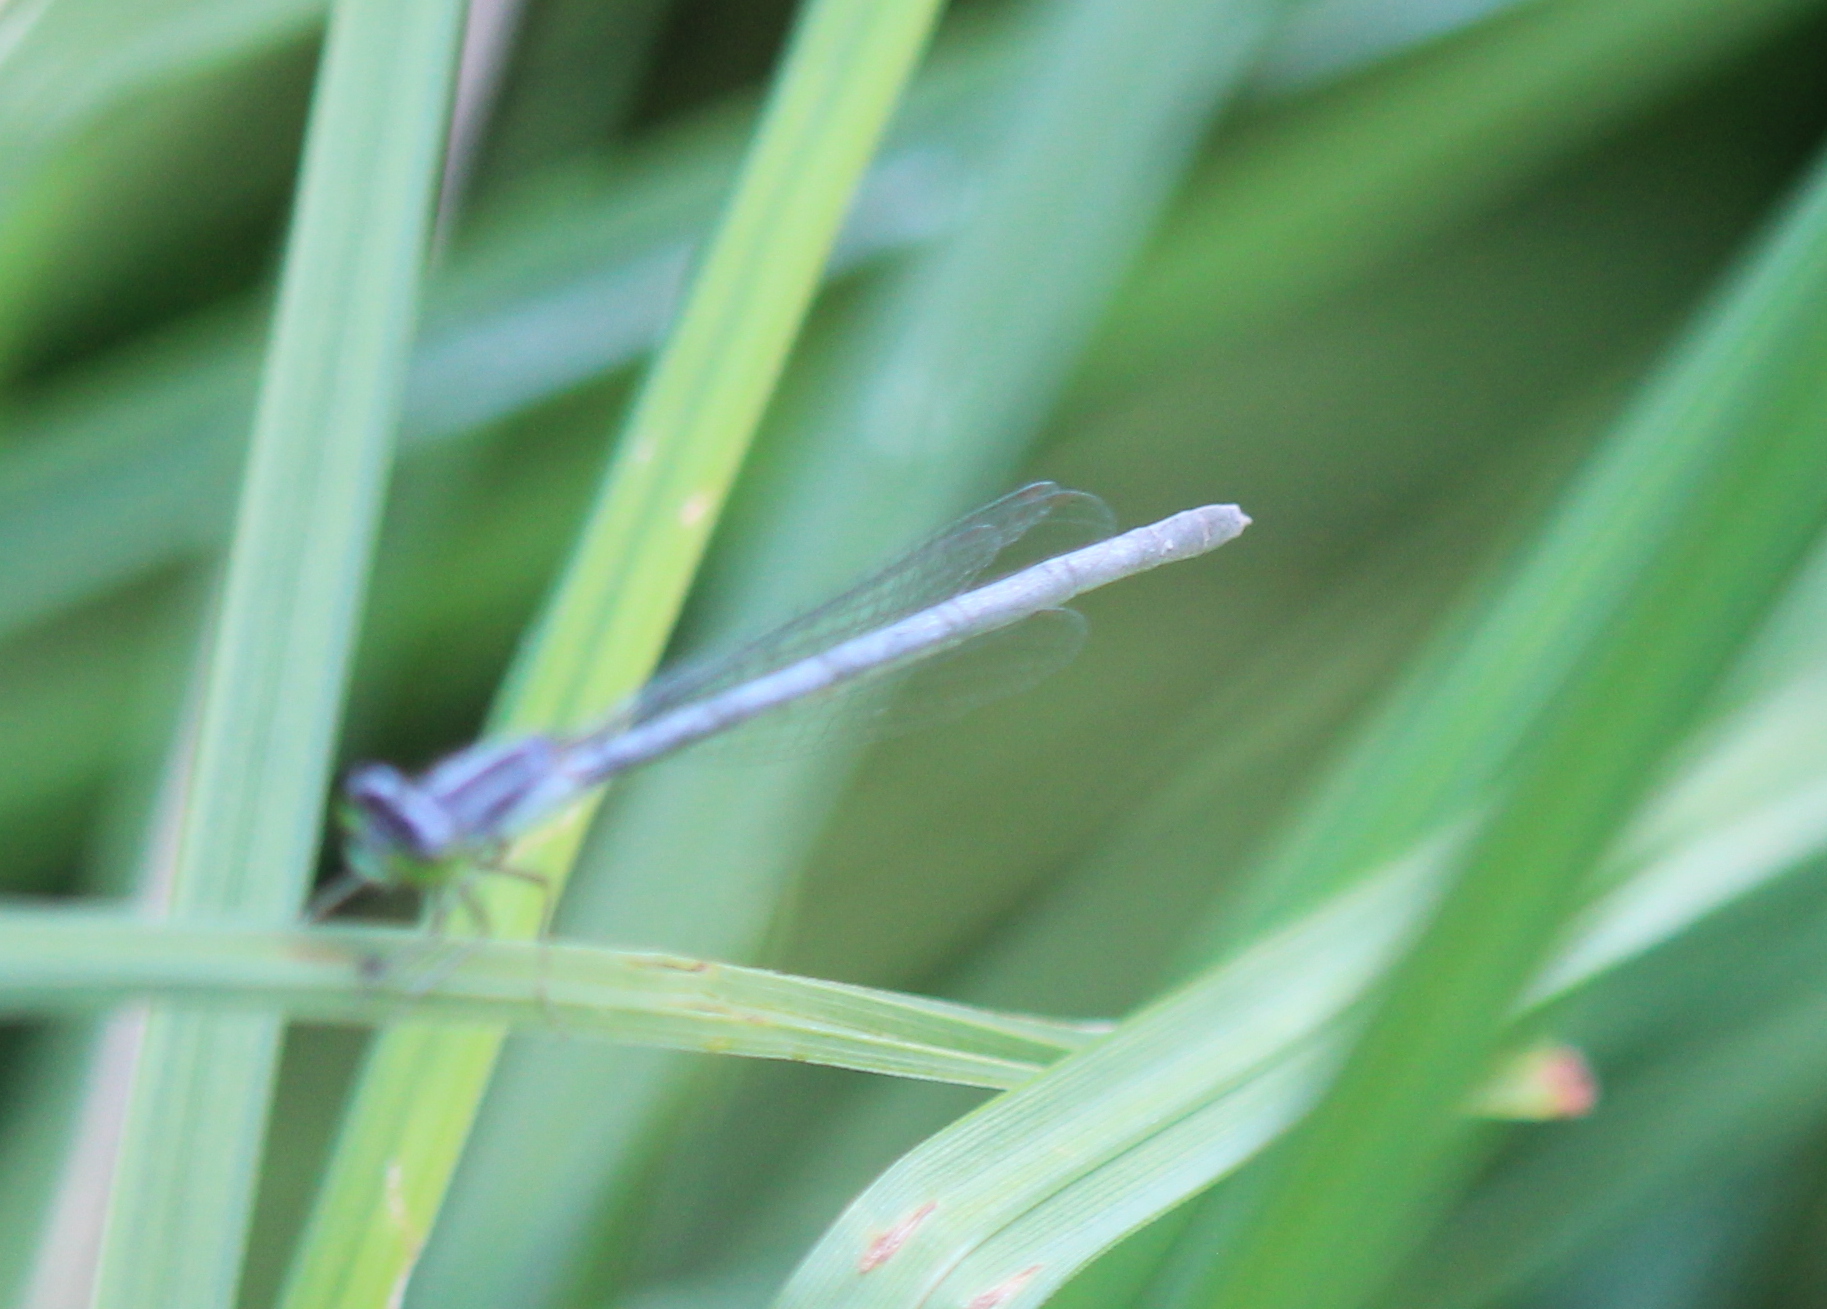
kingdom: Animalia
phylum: Arthropoda
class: Insecta
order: Odonata
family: Coenagrionidae
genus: Ischnura
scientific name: Ischnura verticalis
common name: Eastern forktail
